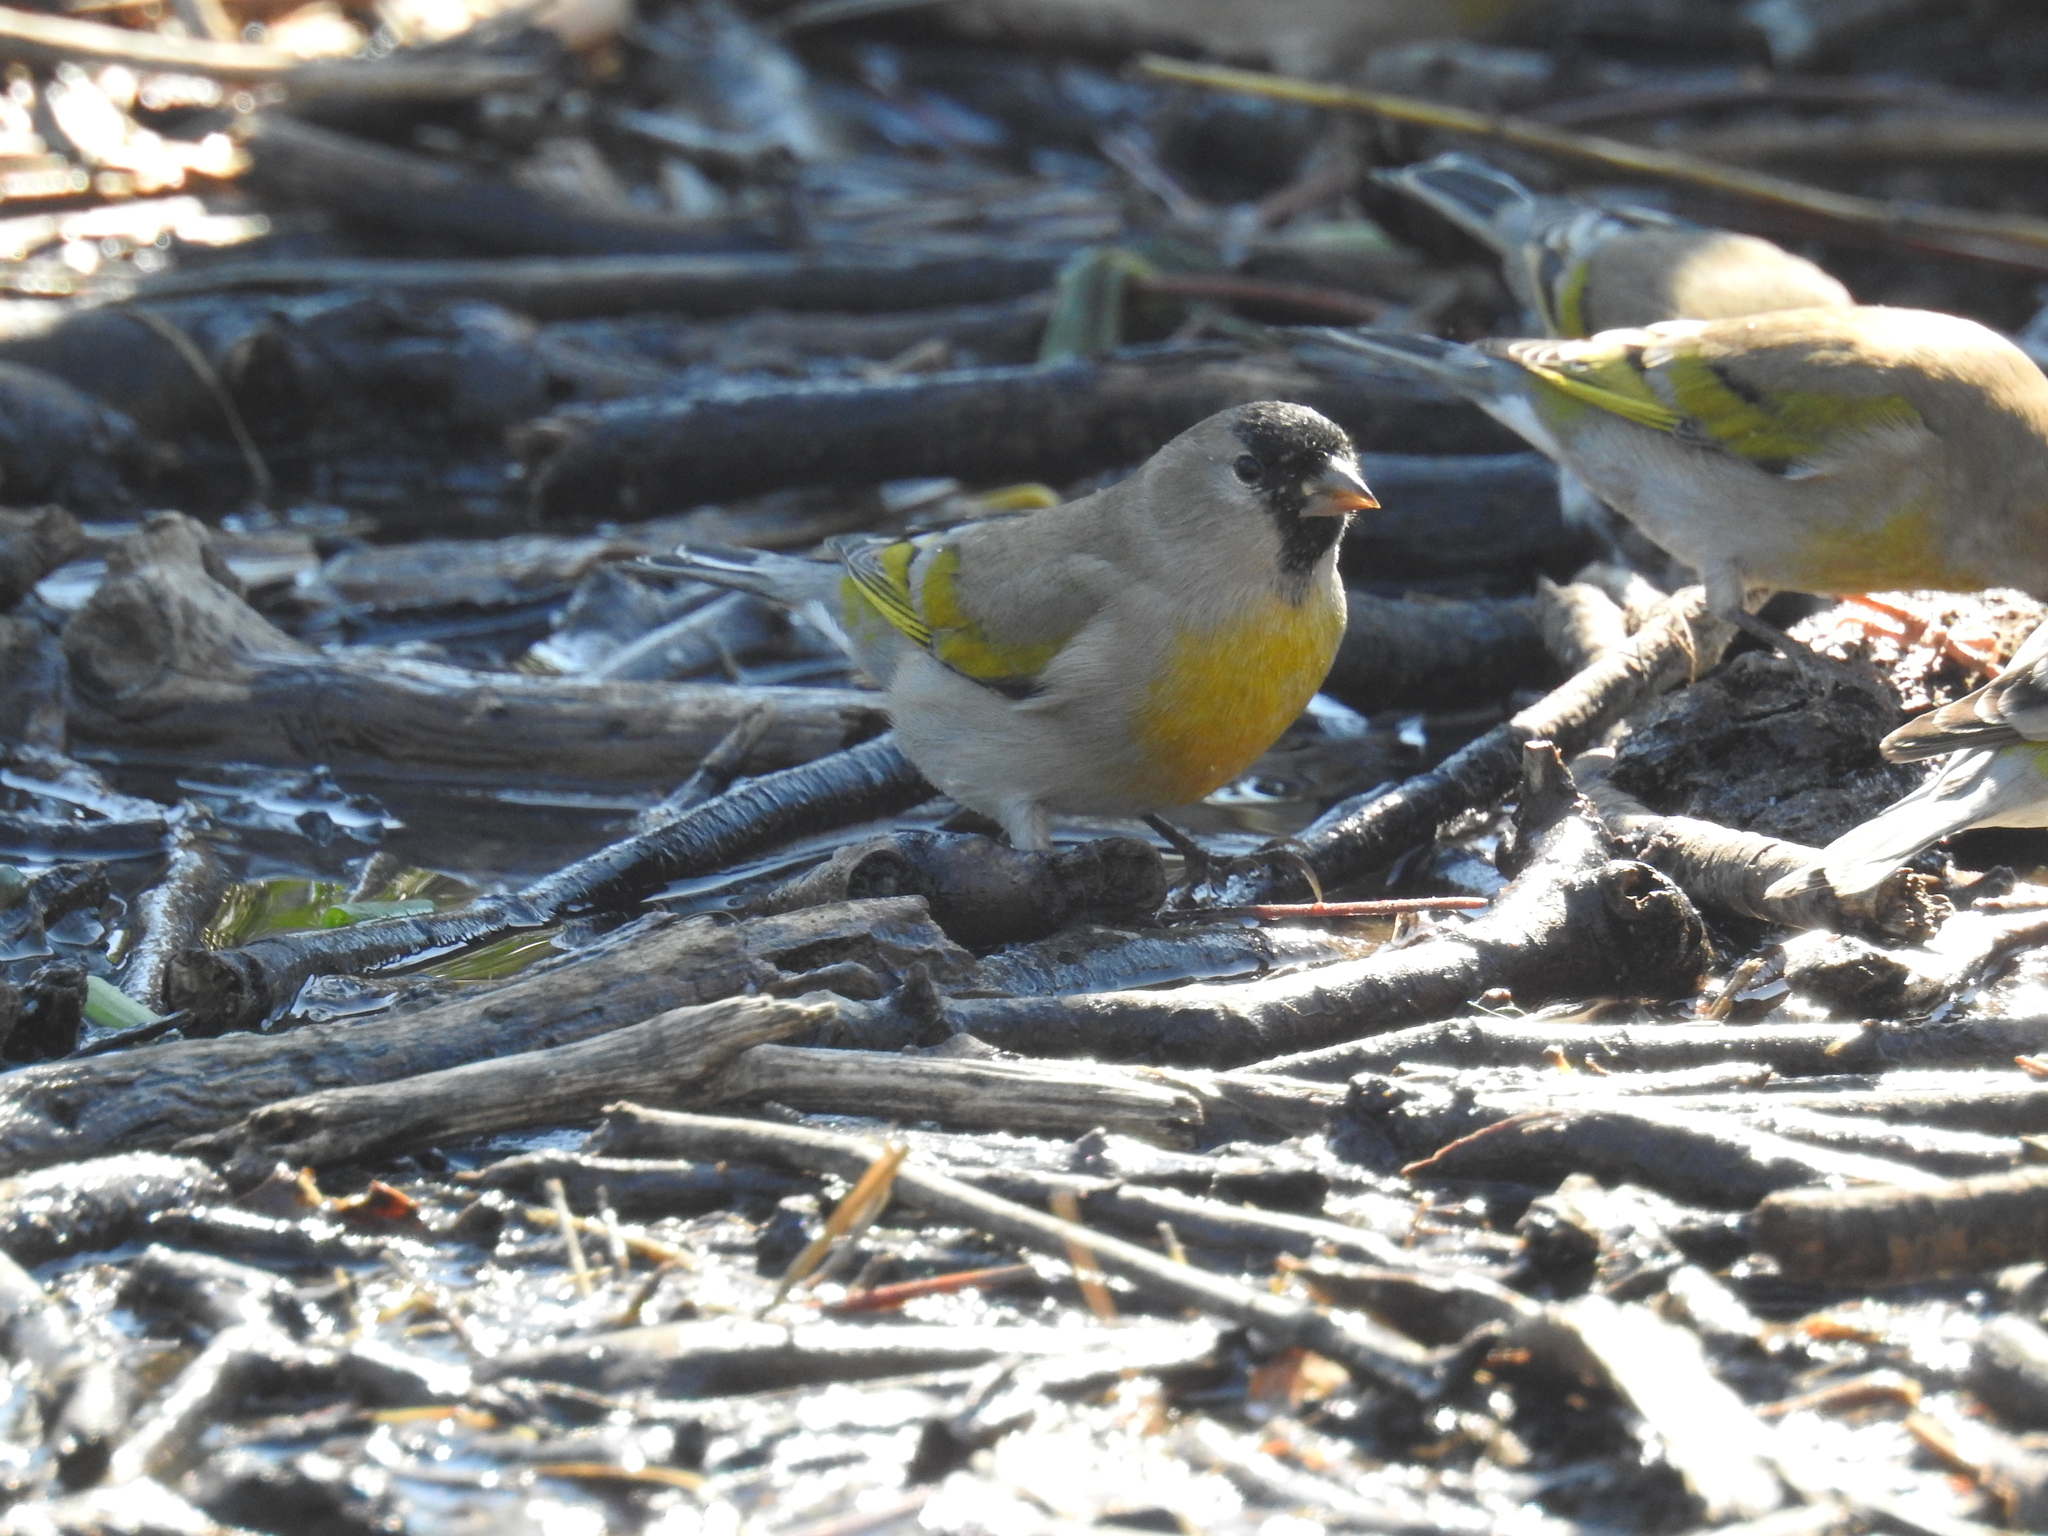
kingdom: Animalia
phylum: Chordata
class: Aves
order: Passeriformes
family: Fringillidae
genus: Spinus
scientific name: Spinus lawrencei
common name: Lawrence's goldfinch
